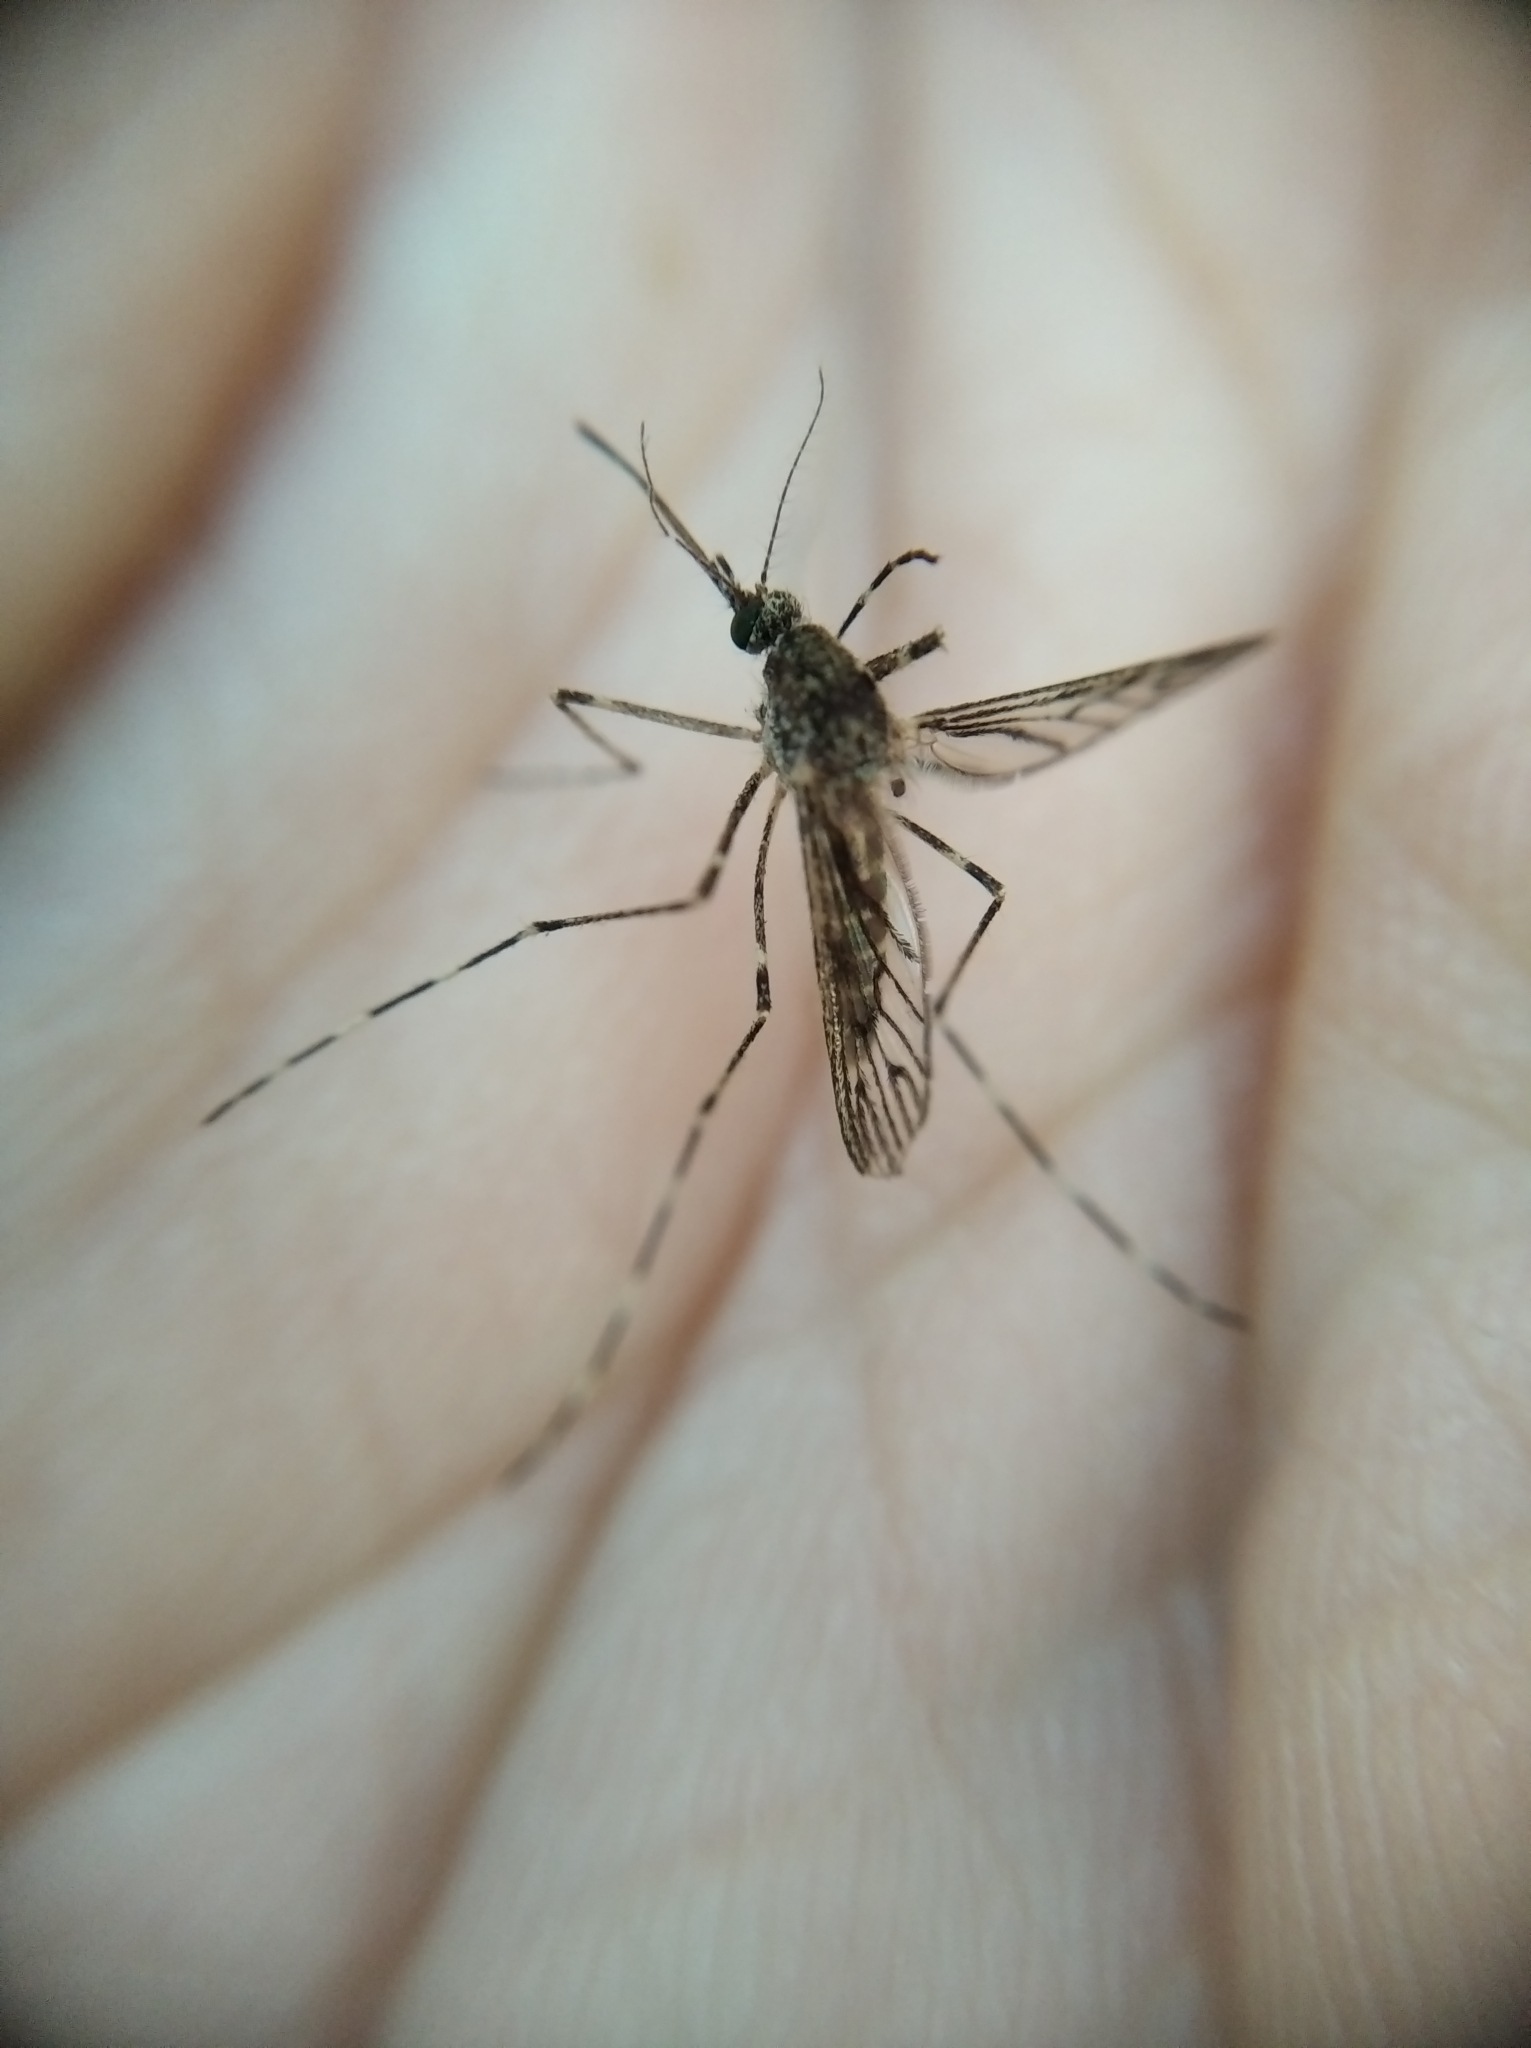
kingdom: Animalia
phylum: Arthropoda
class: Insecta
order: Diptera
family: Culicidae
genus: Culiseta
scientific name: Culiseta annulata
